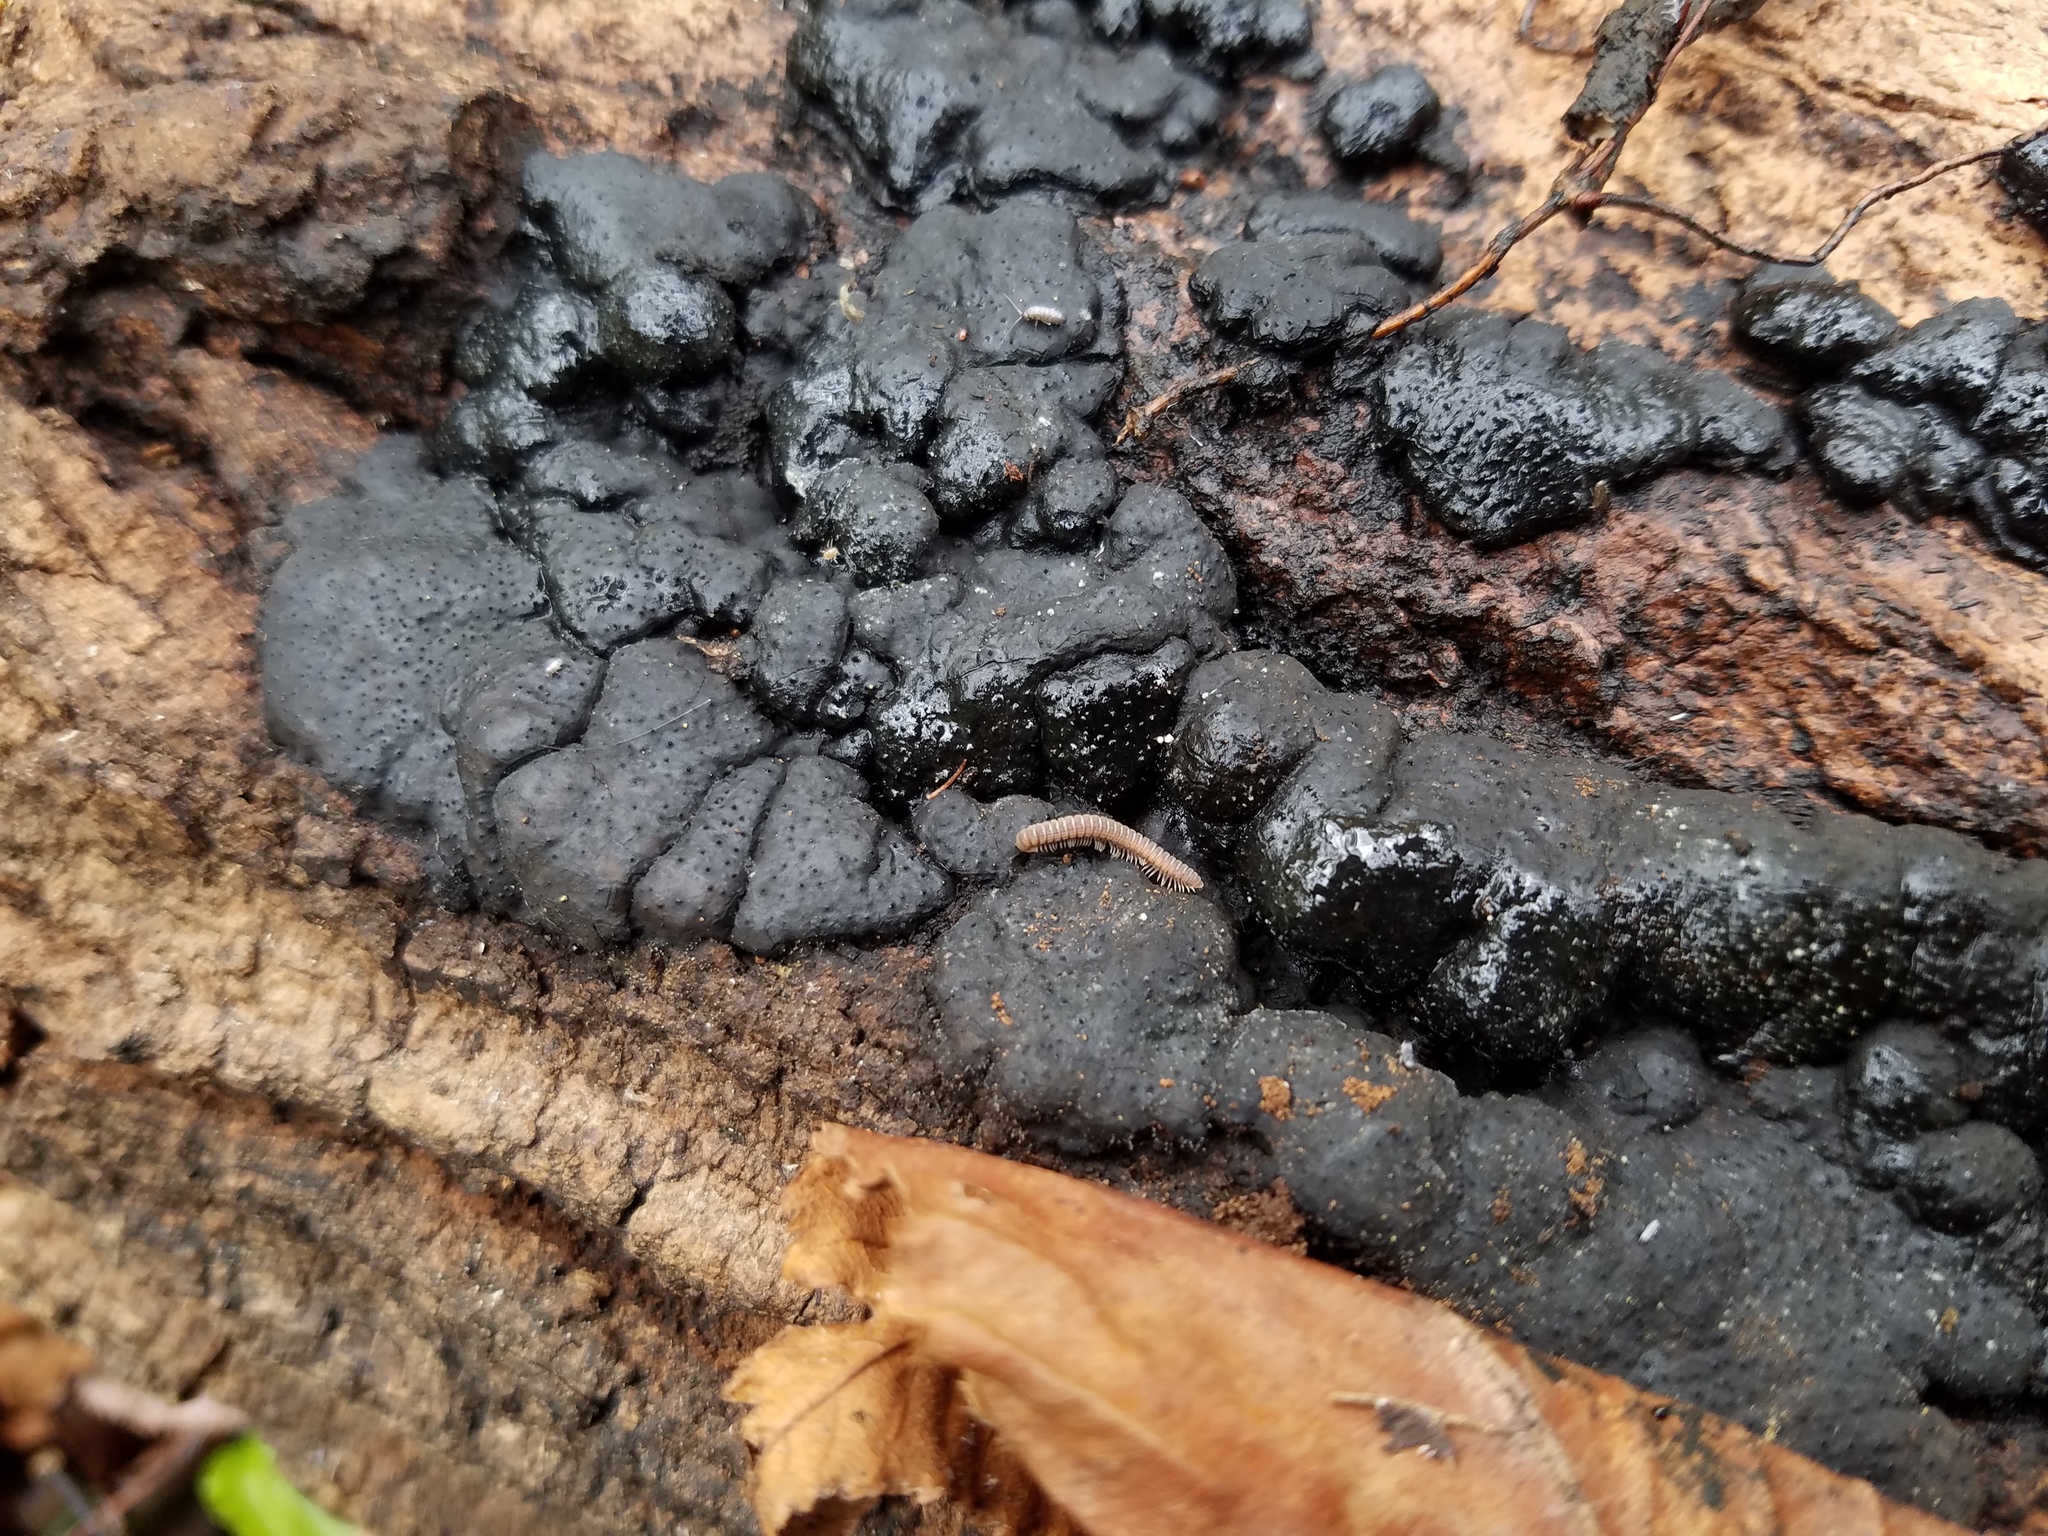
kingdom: Fungi
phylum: Ascomycota
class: Sordariomycetes
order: Xylariales
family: Xylariaceae
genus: Kretzschmaria
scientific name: Kretzschmaria deusta
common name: Brittle cinder
